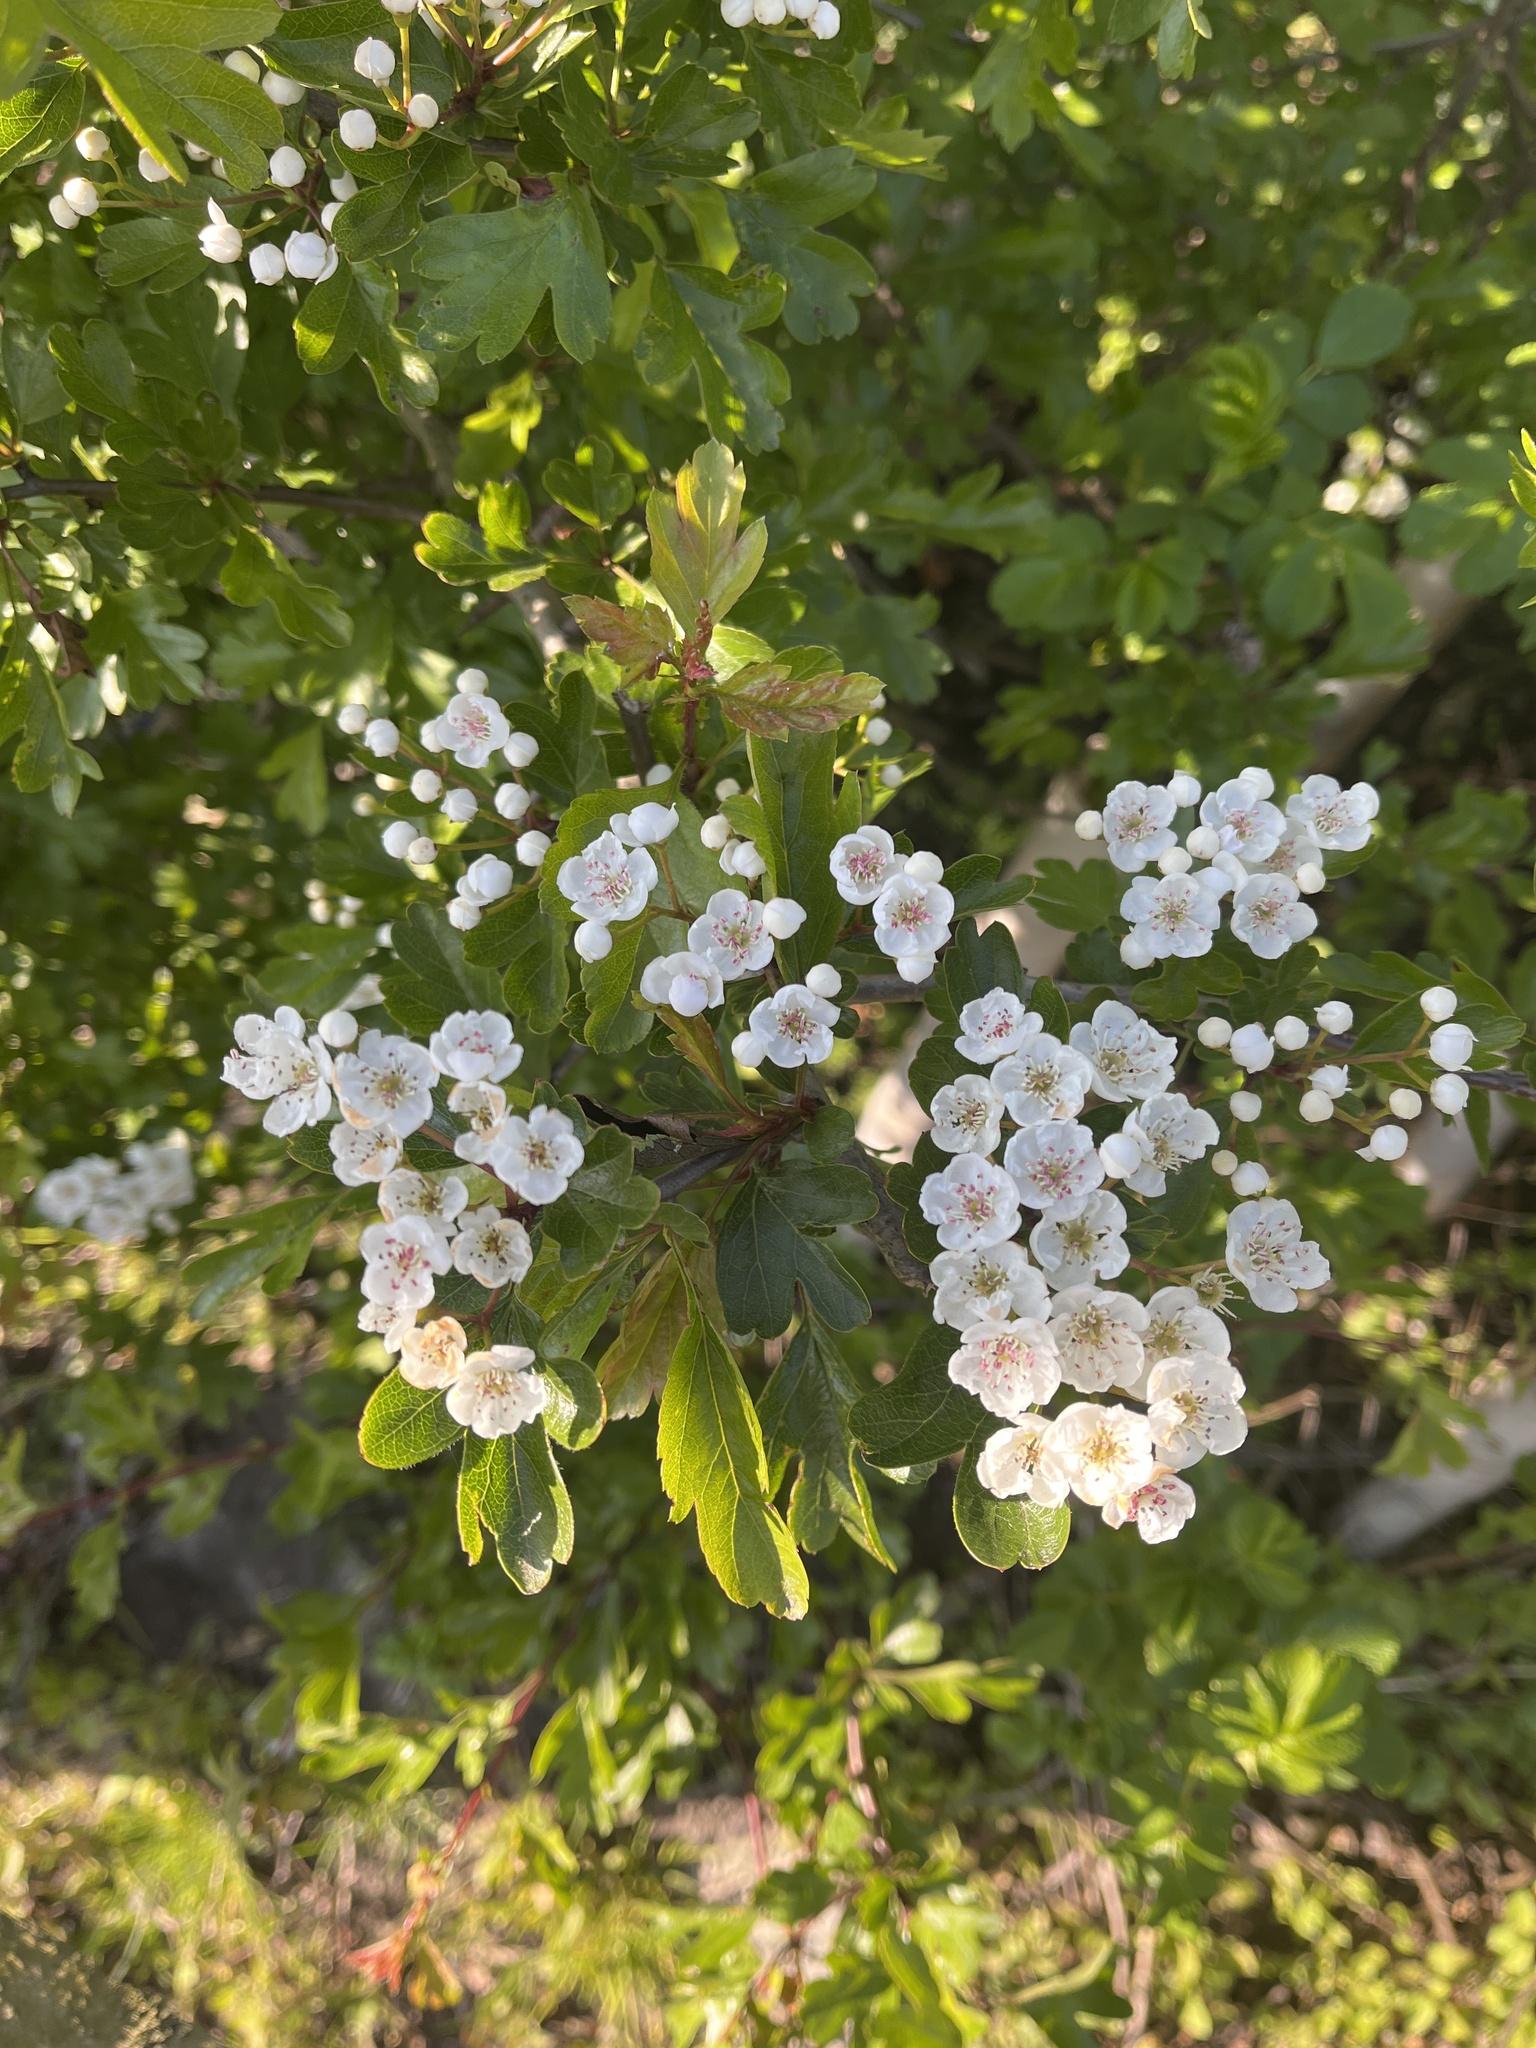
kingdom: Plantae
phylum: Tracheophyta
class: Magnoliopsida
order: Rosales
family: Rosaceae
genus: Crataegus
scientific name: Crataegus monogyna
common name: Hawthorn
